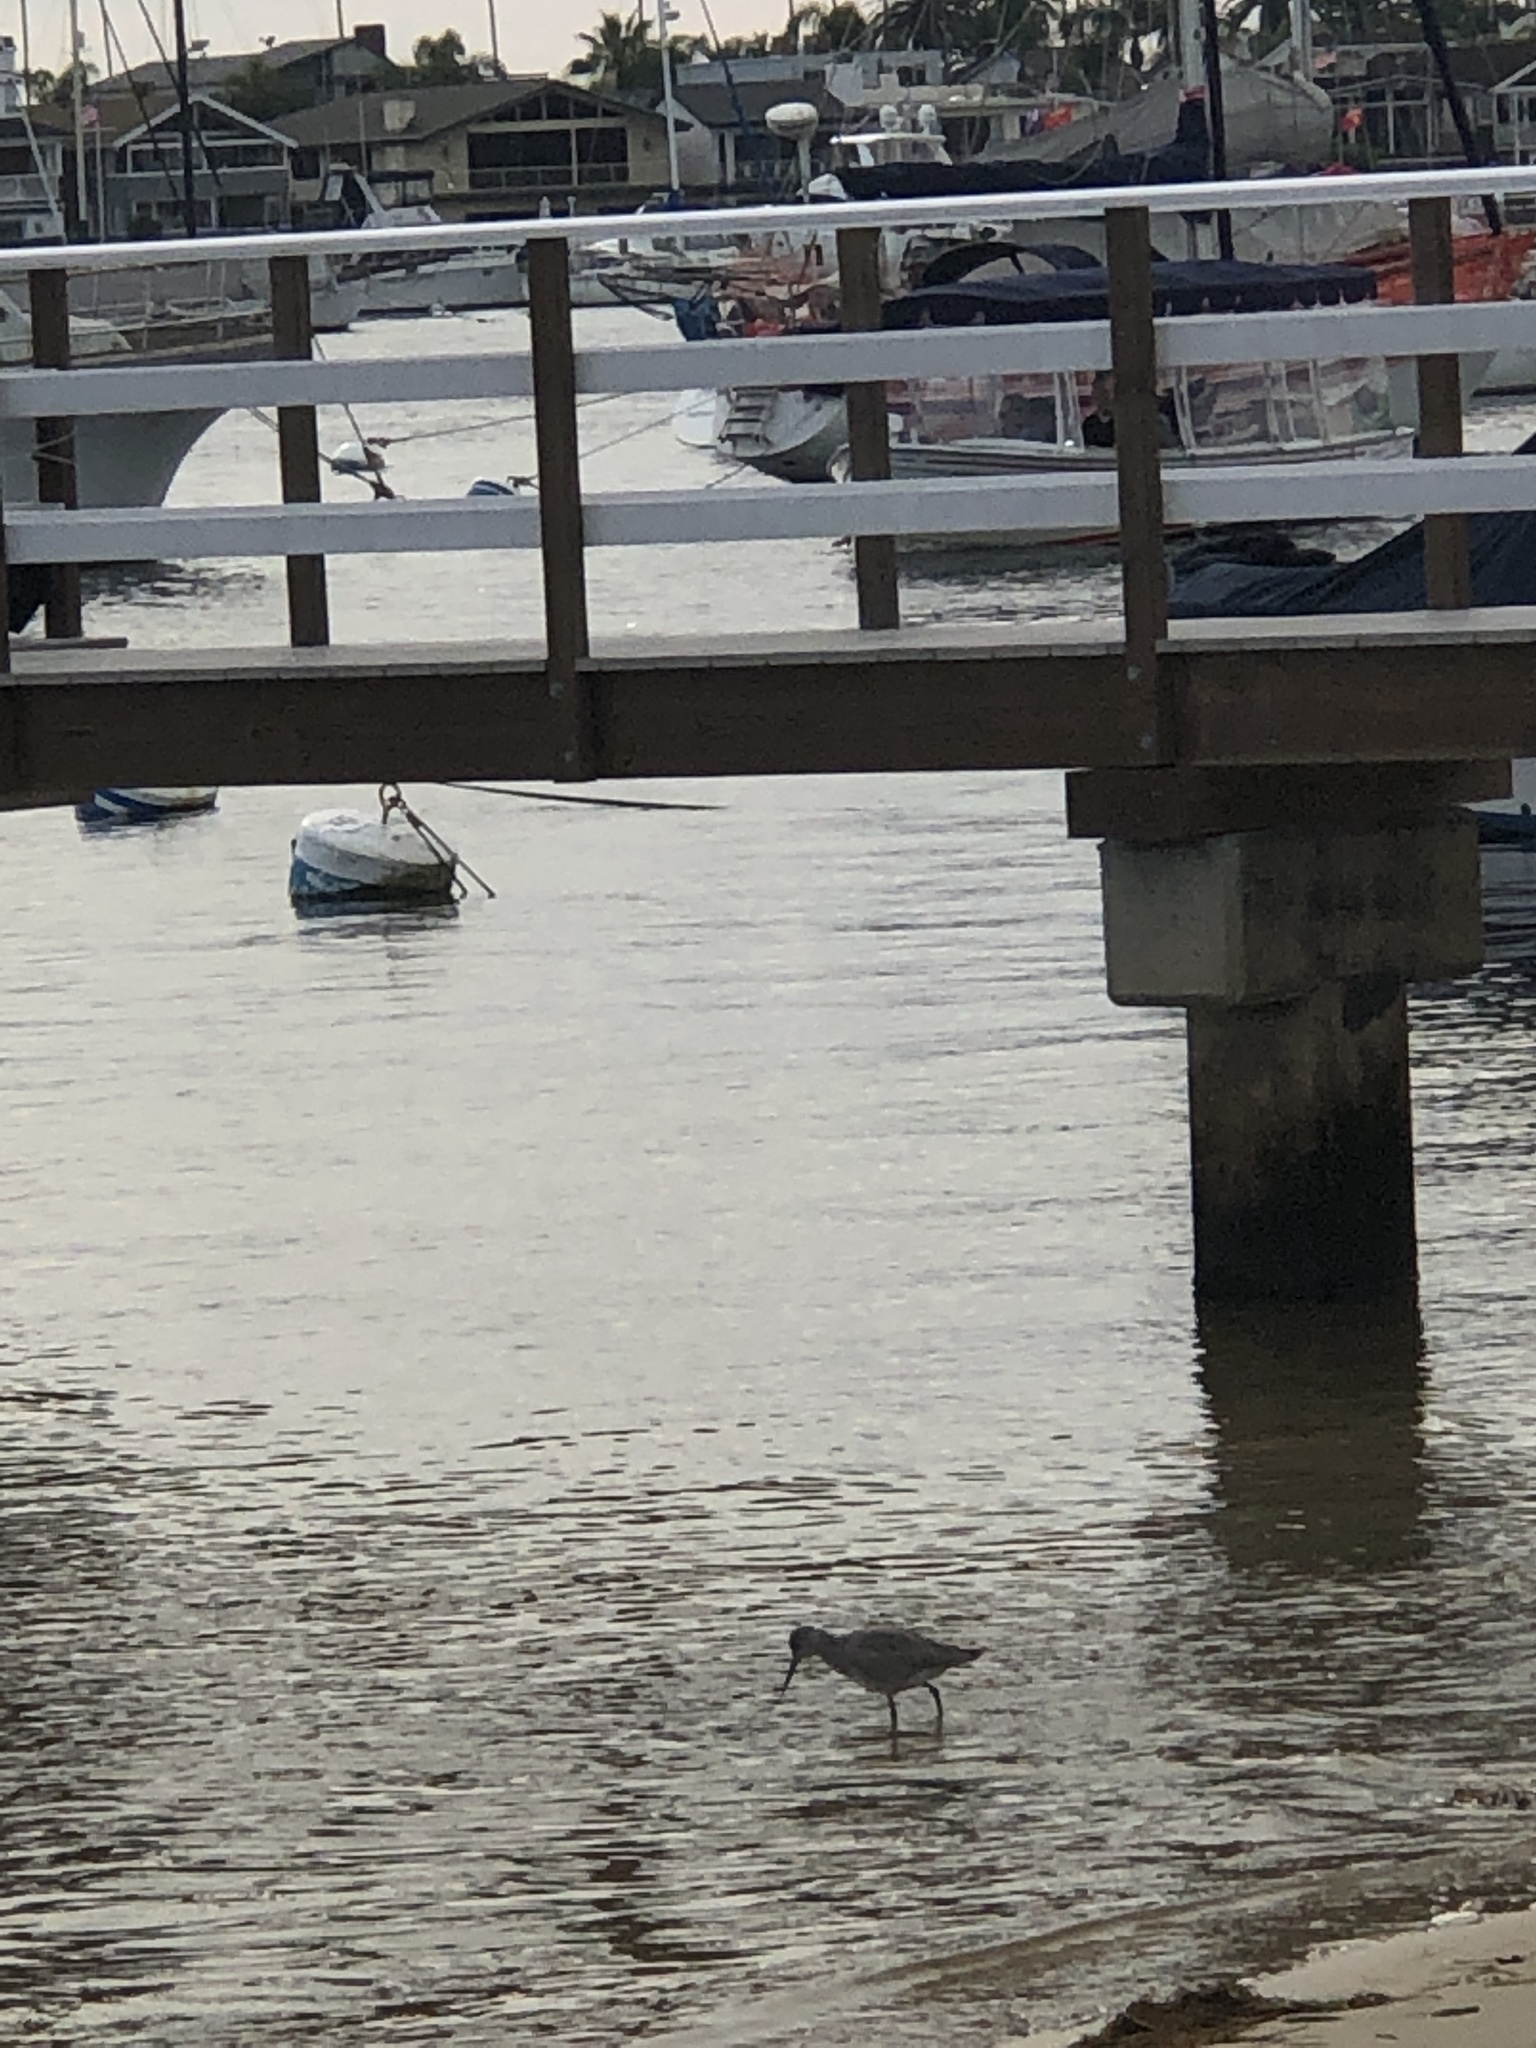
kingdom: Animalia
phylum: Chordata
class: Aves
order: Charadriiformes
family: Scolopacidae
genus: Tringa
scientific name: Tringa semipalmata
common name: Willet
